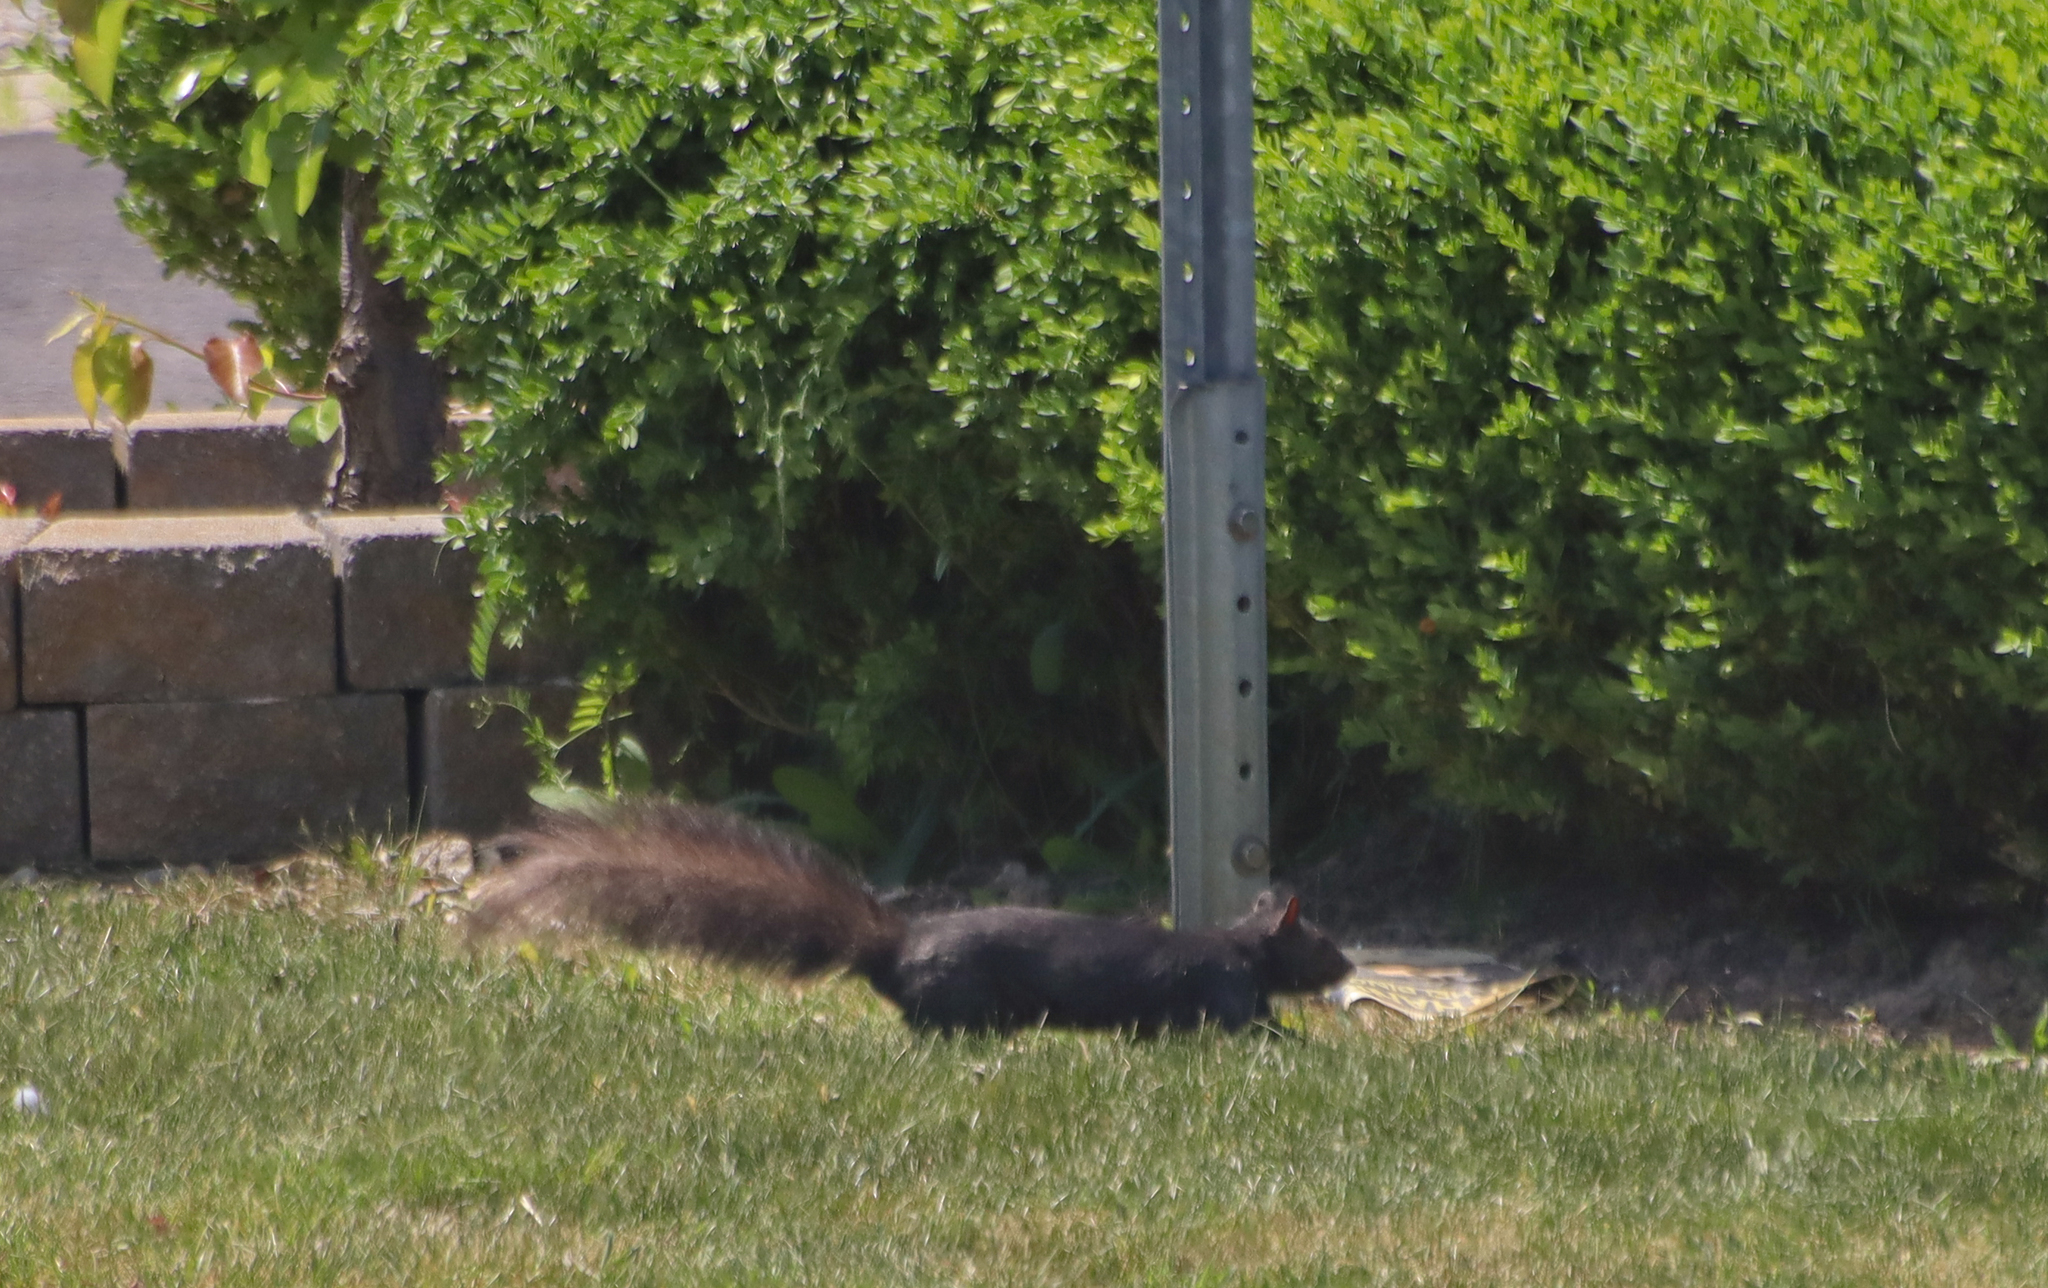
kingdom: Animalia
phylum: Chordata
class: Mammalia
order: Rodentia
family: Sciuridae
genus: Sciurus
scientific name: Sciurus carolinensis
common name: Eastern gray squirrel
